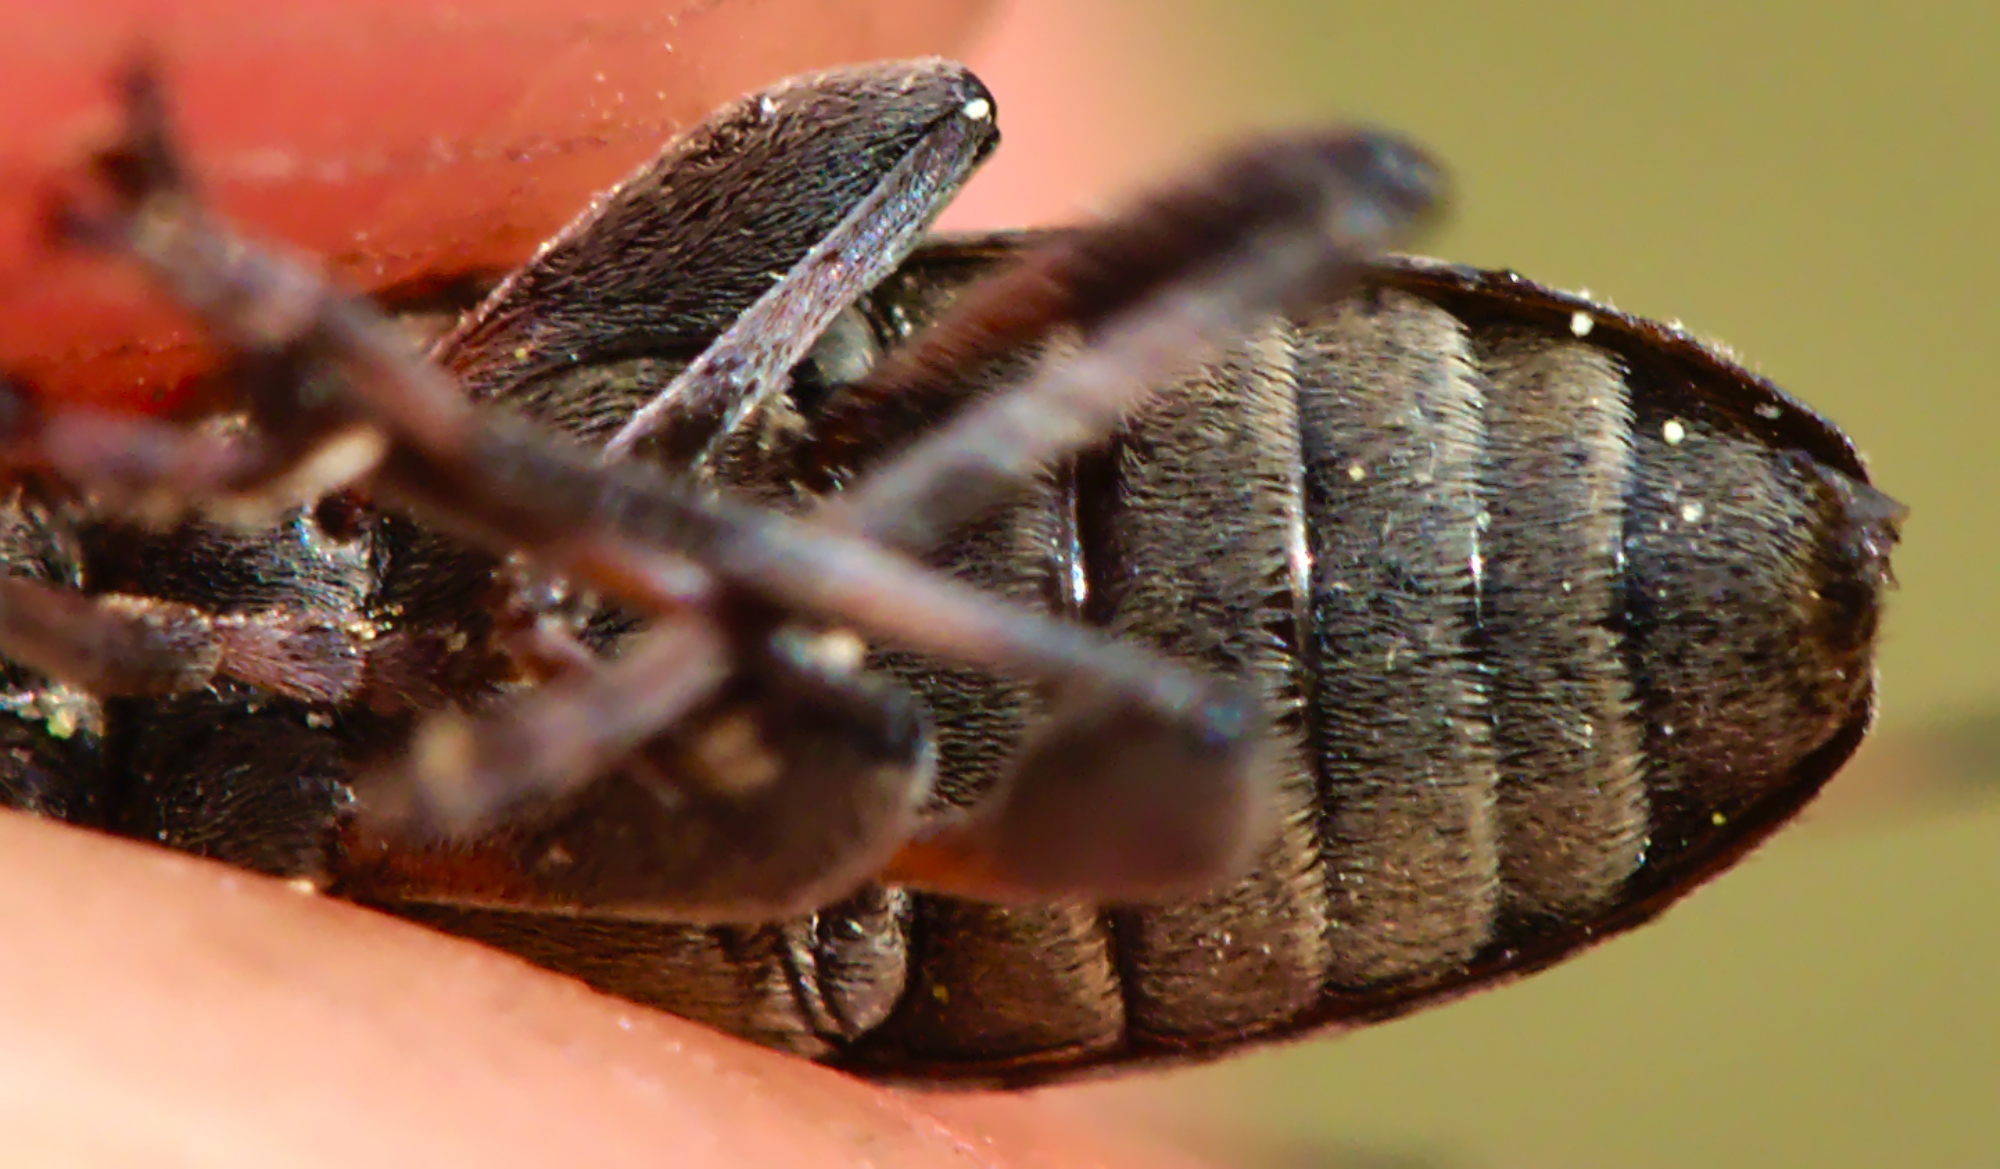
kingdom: Animalia
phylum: Arthropoda
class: Insecta
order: Coleoptera
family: Cerambycidae
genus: Leiopus
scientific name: Leiopus femoratus
